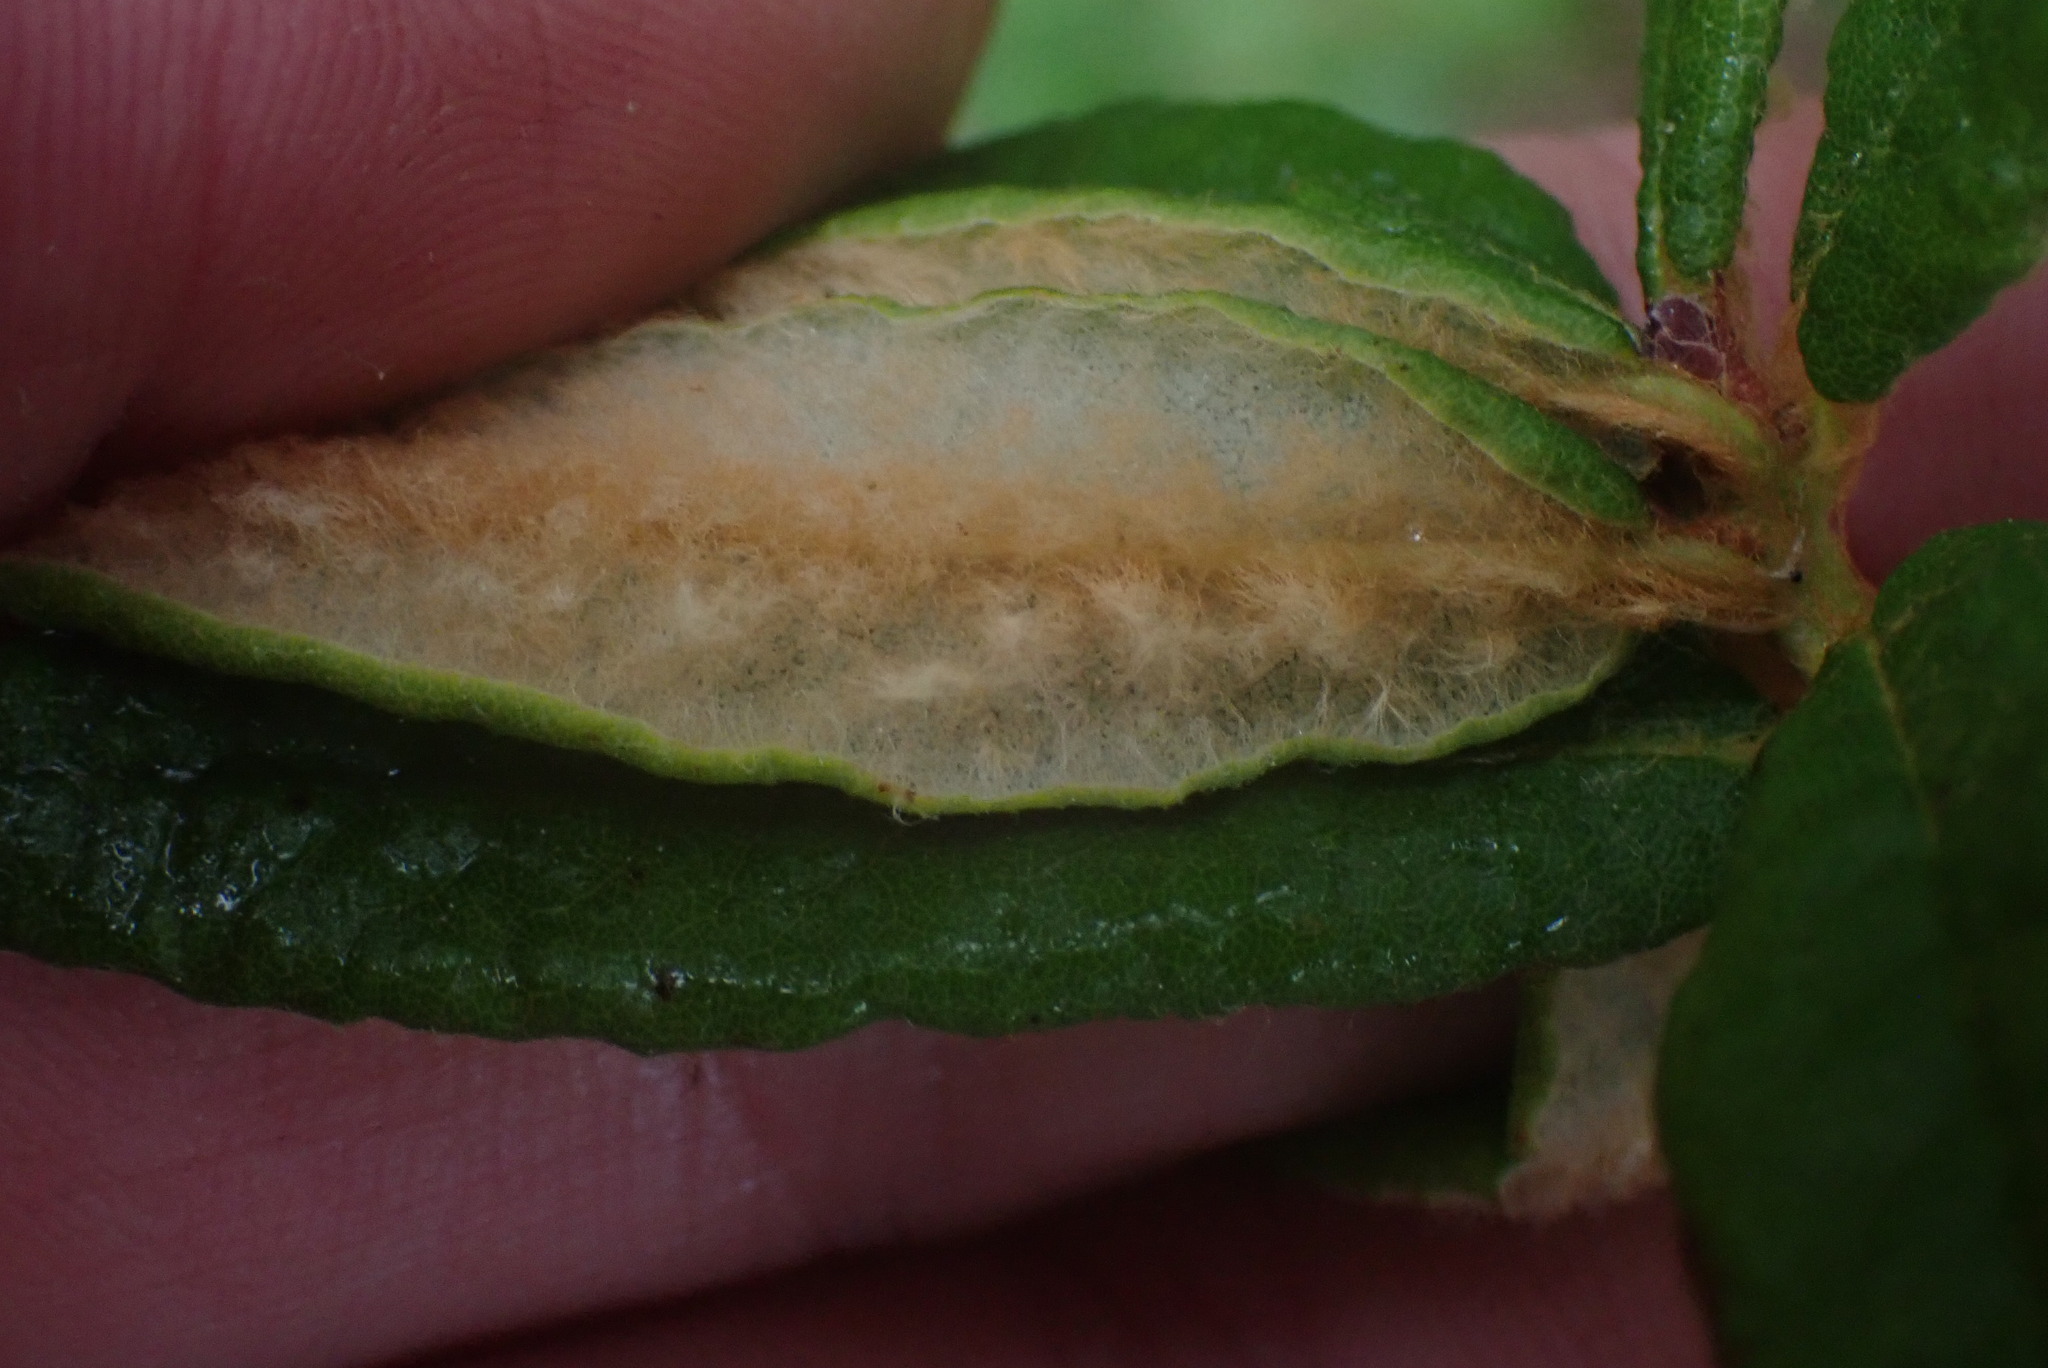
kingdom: Plantae
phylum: Tracheophyta
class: Magnoliopsida
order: Ericales
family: Ericaceae
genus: Rhododendron
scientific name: Rhododendron groenlandicum
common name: Bog labrador tea
